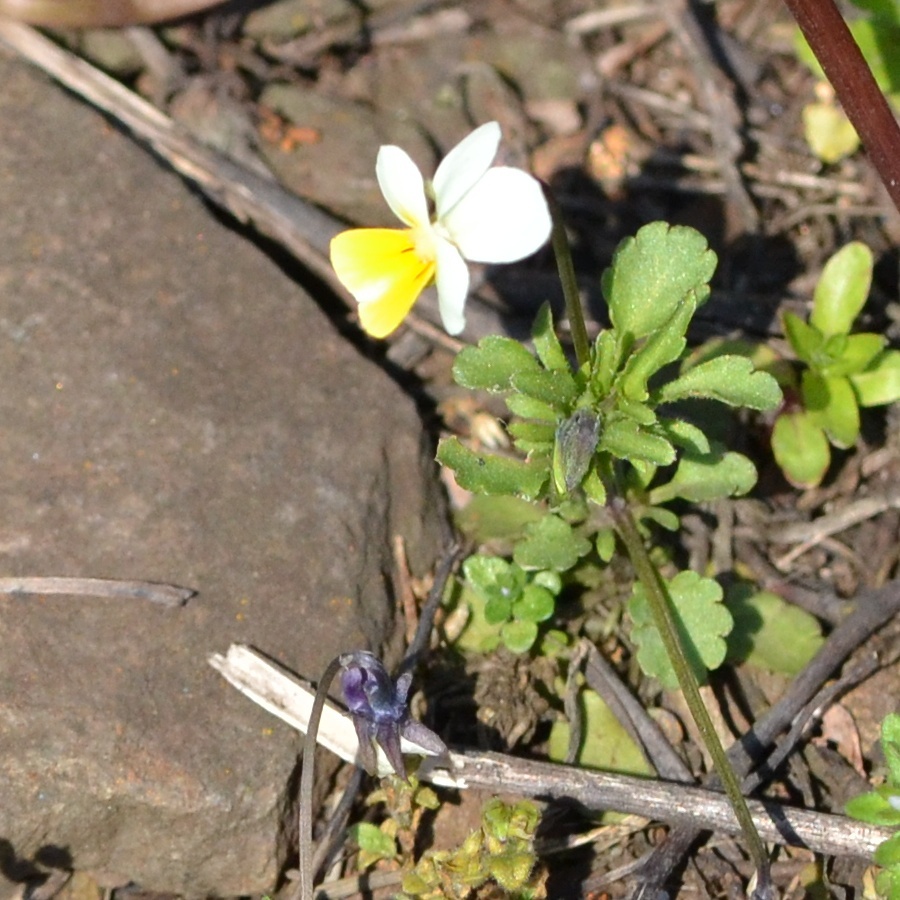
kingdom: Plantae
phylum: Tracheophyta
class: Magnoliopsida
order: Malpighiales
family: Violaceae
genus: Viola
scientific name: Viola arvensis
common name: Field pansy
